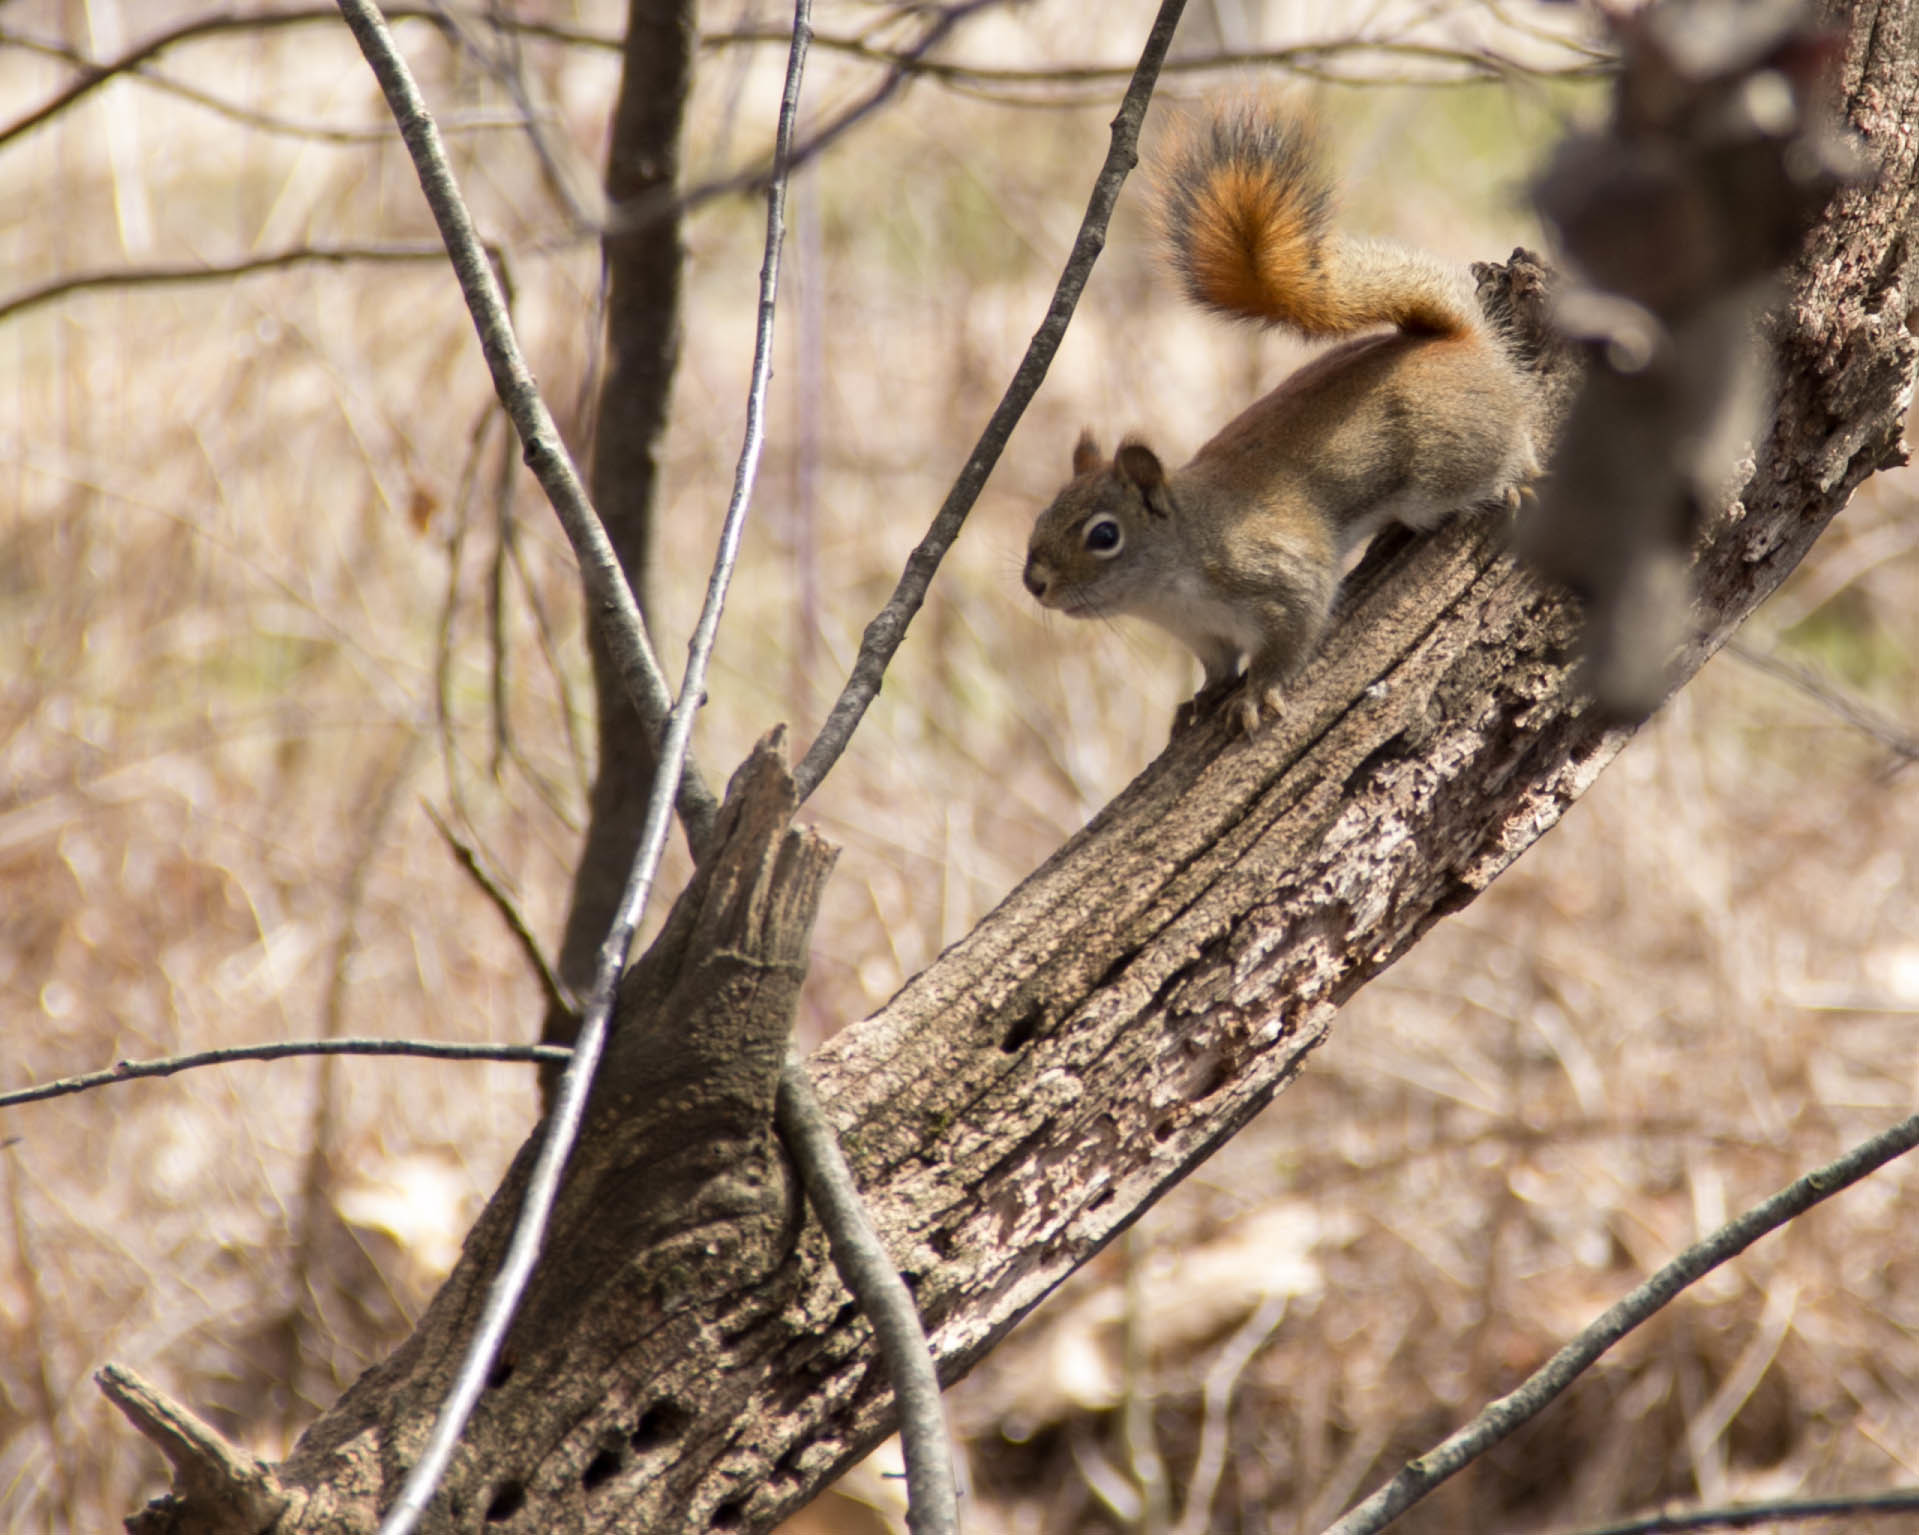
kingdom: Animalia
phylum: Chordata
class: Mammalia
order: Rodentia
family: Sciuridae
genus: Tamiasciurus
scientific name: Tamiasciurus hudsonicus
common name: Red squirrel
